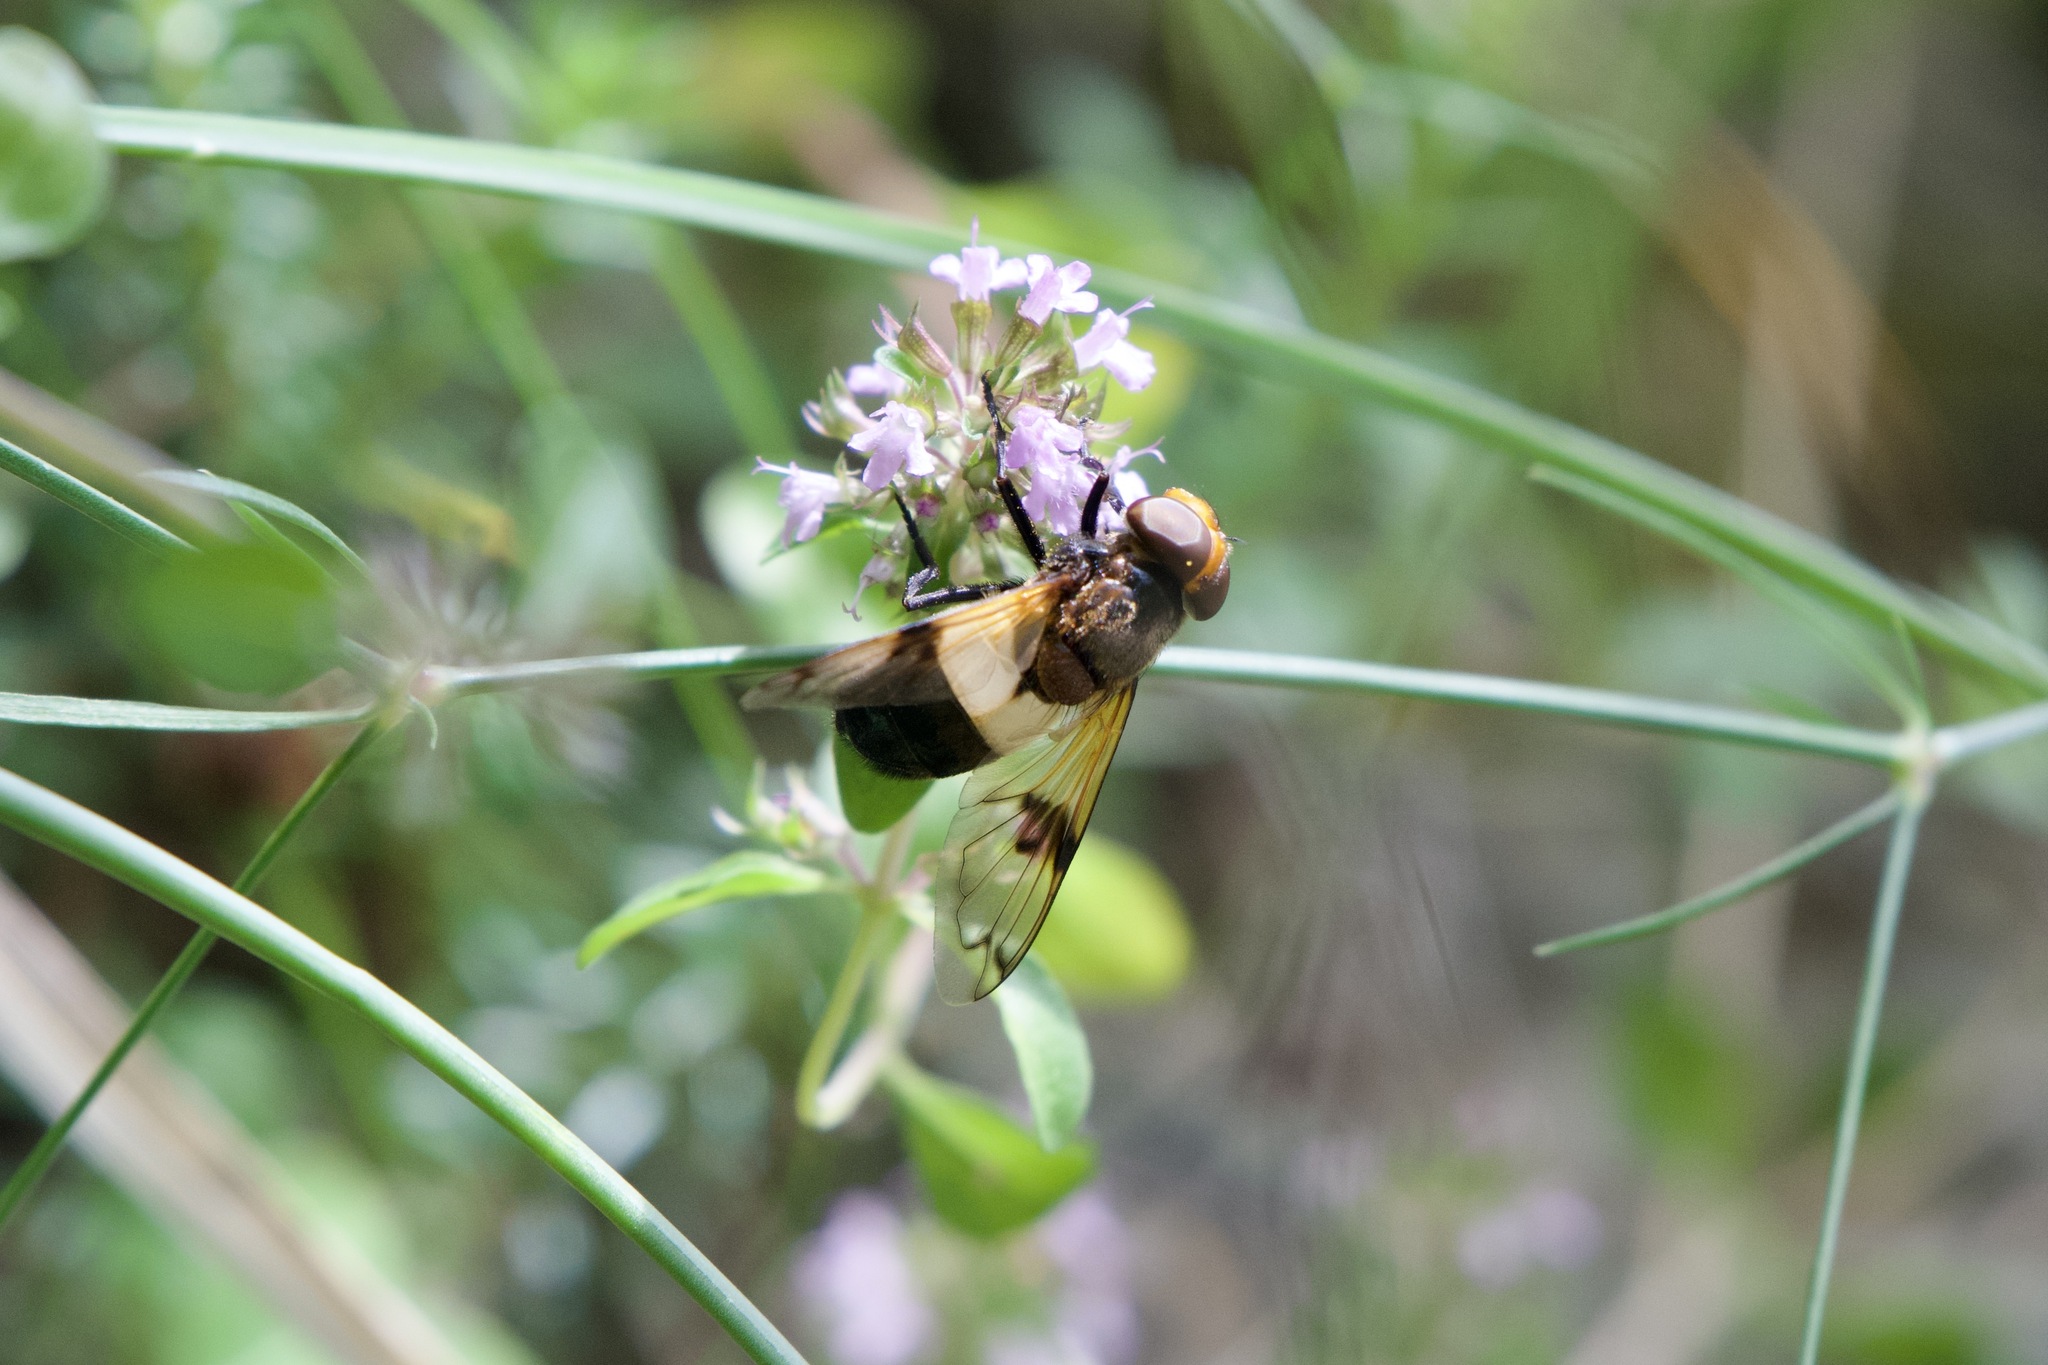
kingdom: Animalia
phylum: Arthropoda
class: Insecta
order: Diptera
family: Syrphidae
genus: Volucella
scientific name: Volucella pellucens
